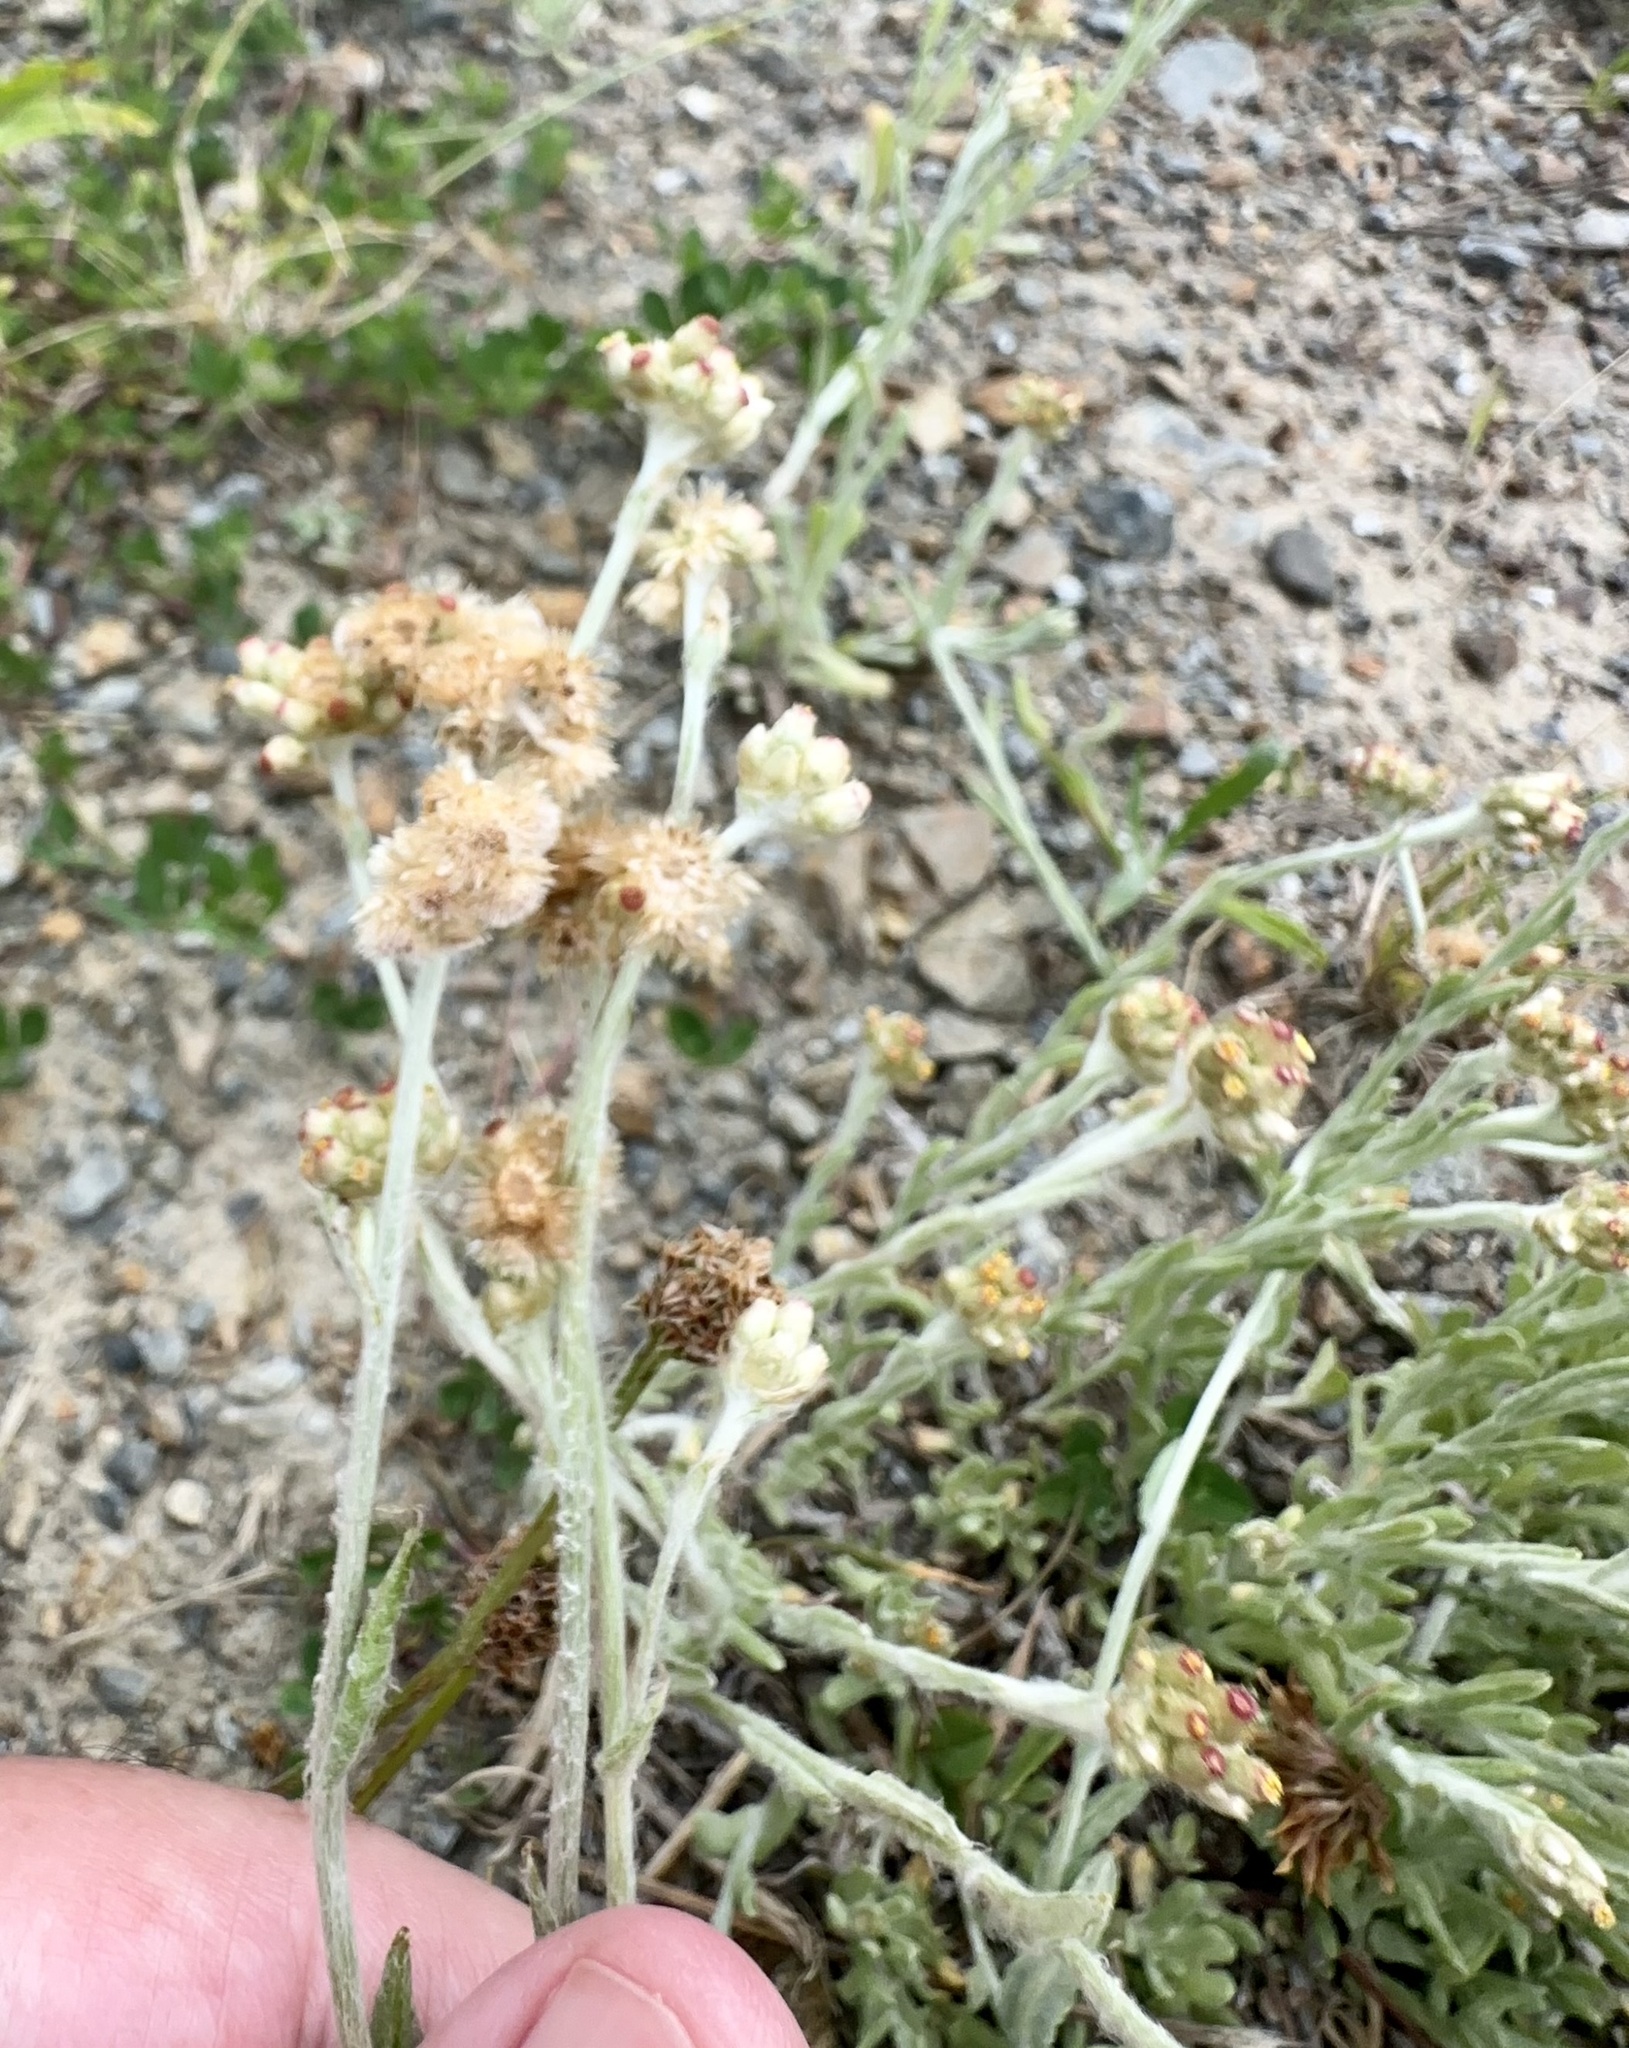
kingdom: Plantae
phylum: Tracheophyta
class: Magnoliopsida
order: Asterales
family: Asteraceae
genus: Helichrysum
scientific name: Helichrysum luteoalbum
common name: Daisy
